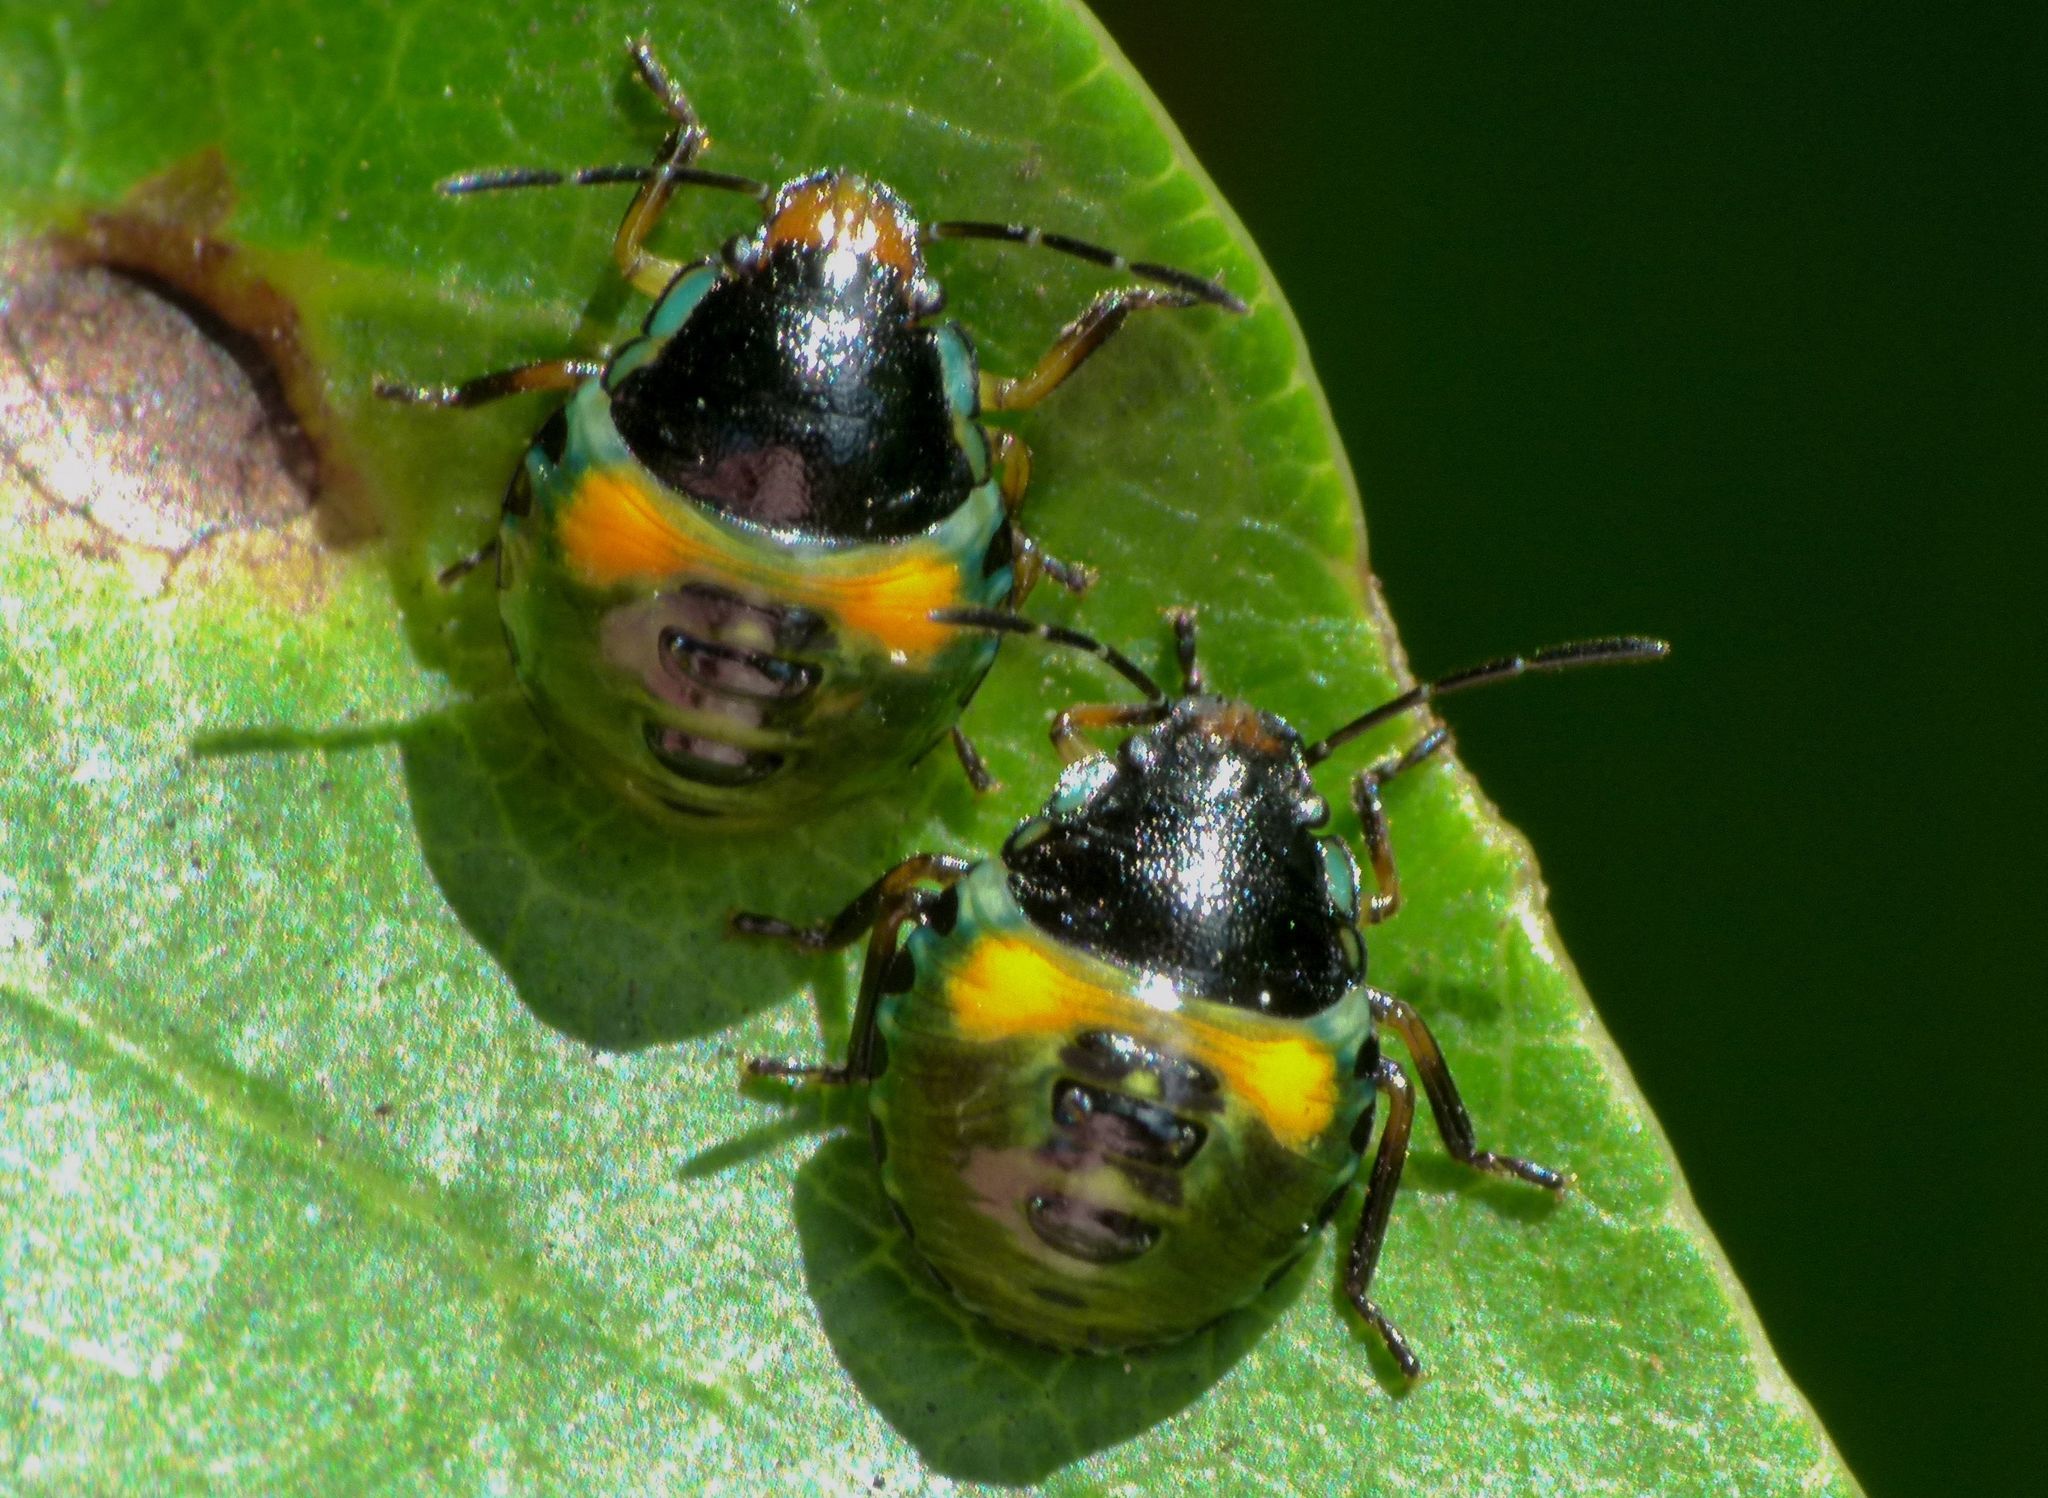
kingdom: Animalia
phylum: Arthropoda
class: Insecta
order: Hemiptera
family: Pentatomidae
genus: Glaucias
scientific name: Glaucias amyota
